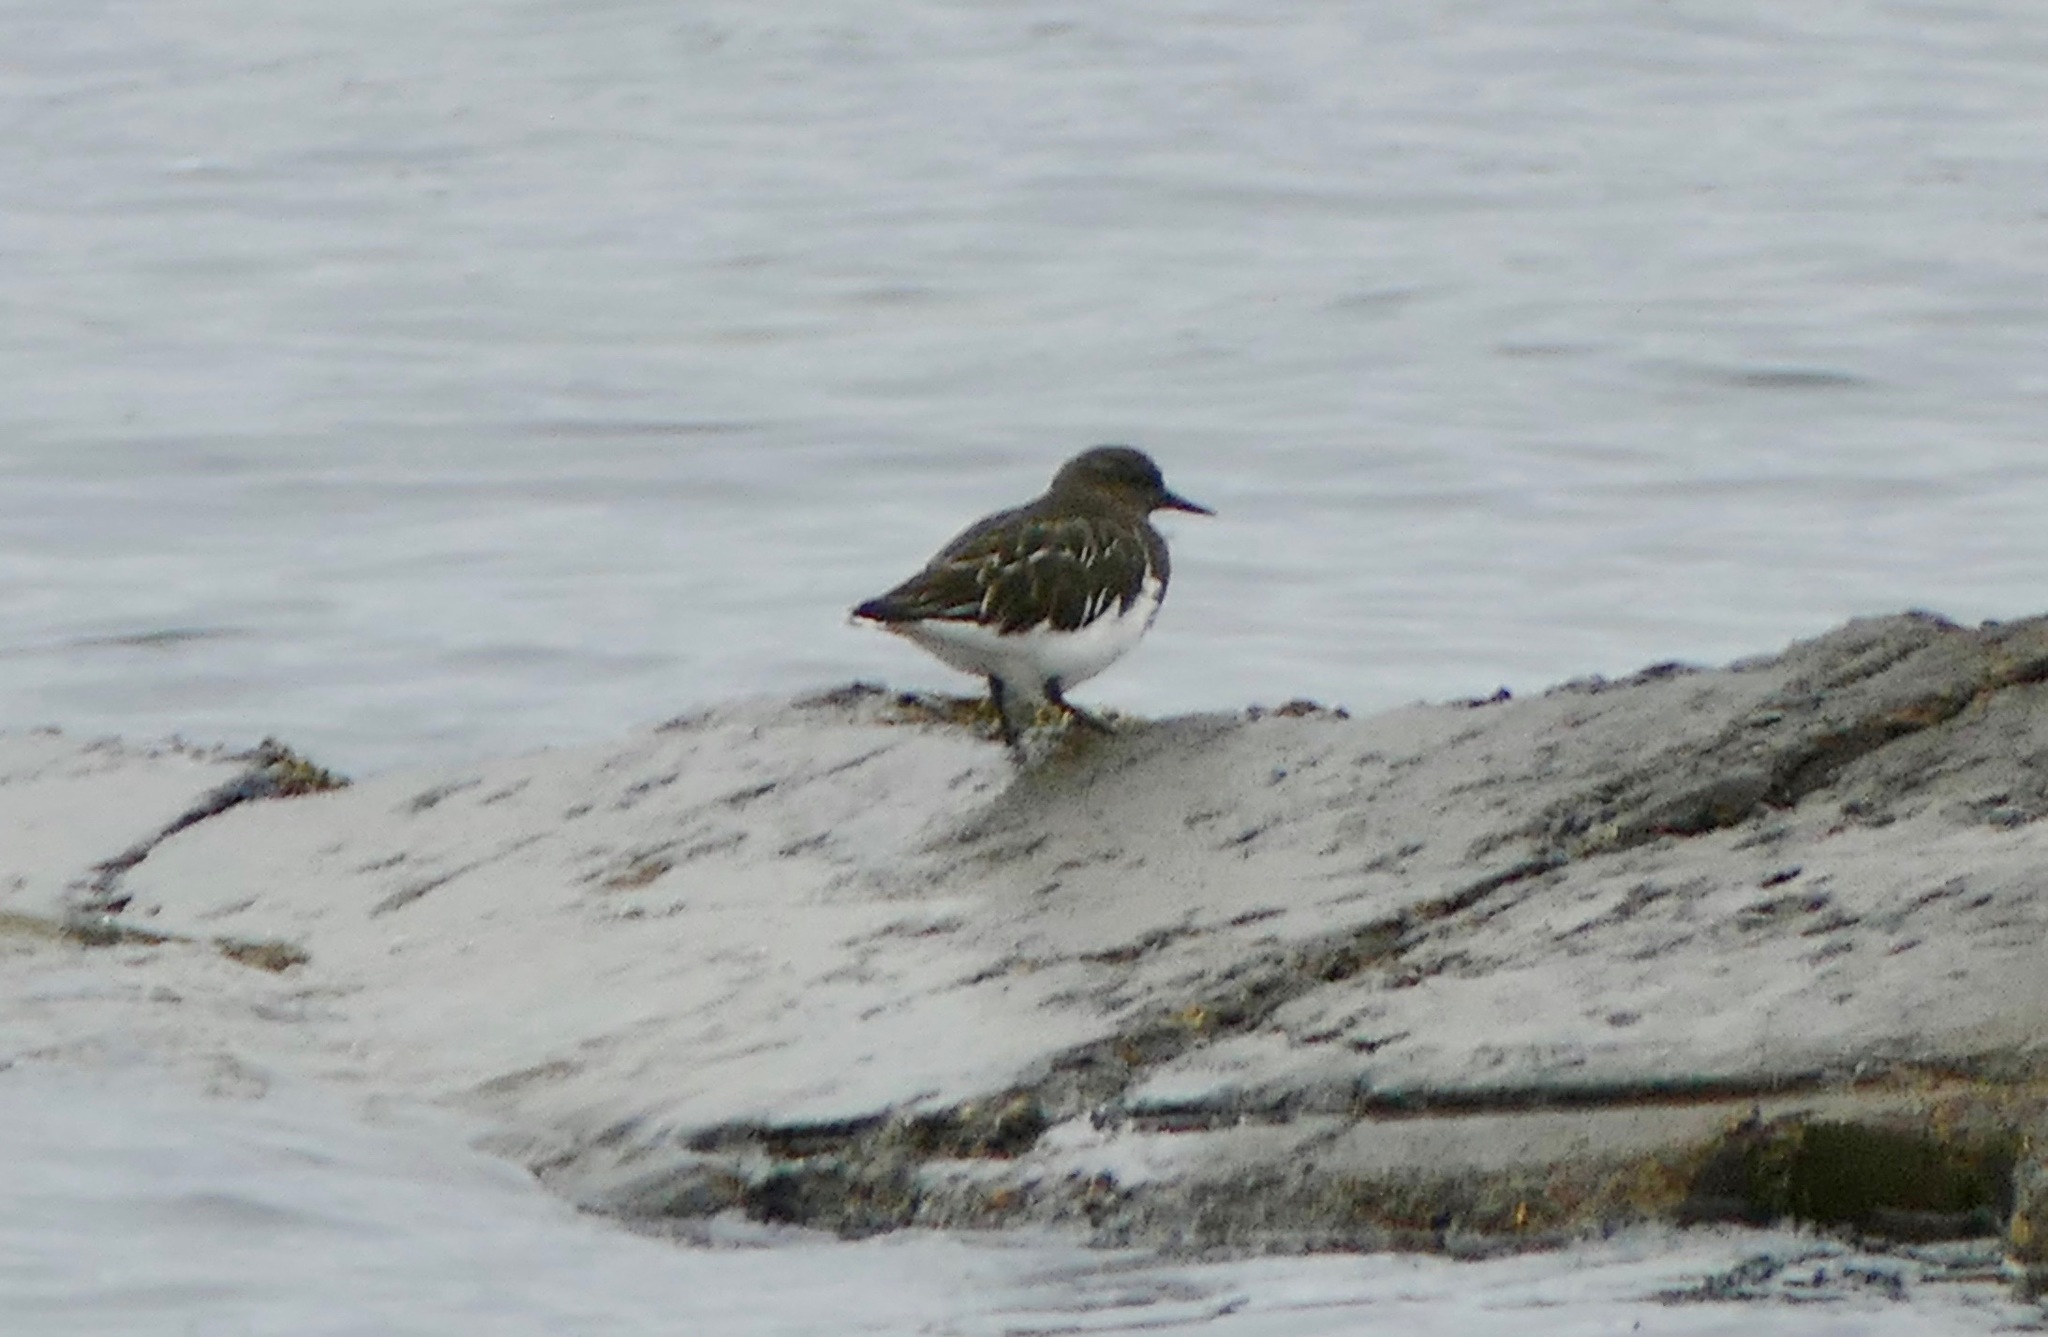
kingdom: Animalia
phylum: Chordata
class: Aves
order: Charadriiformes
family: Scolopacidae
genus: Arenaria
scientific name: Arenaria melanocephala
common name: Black turnstone
